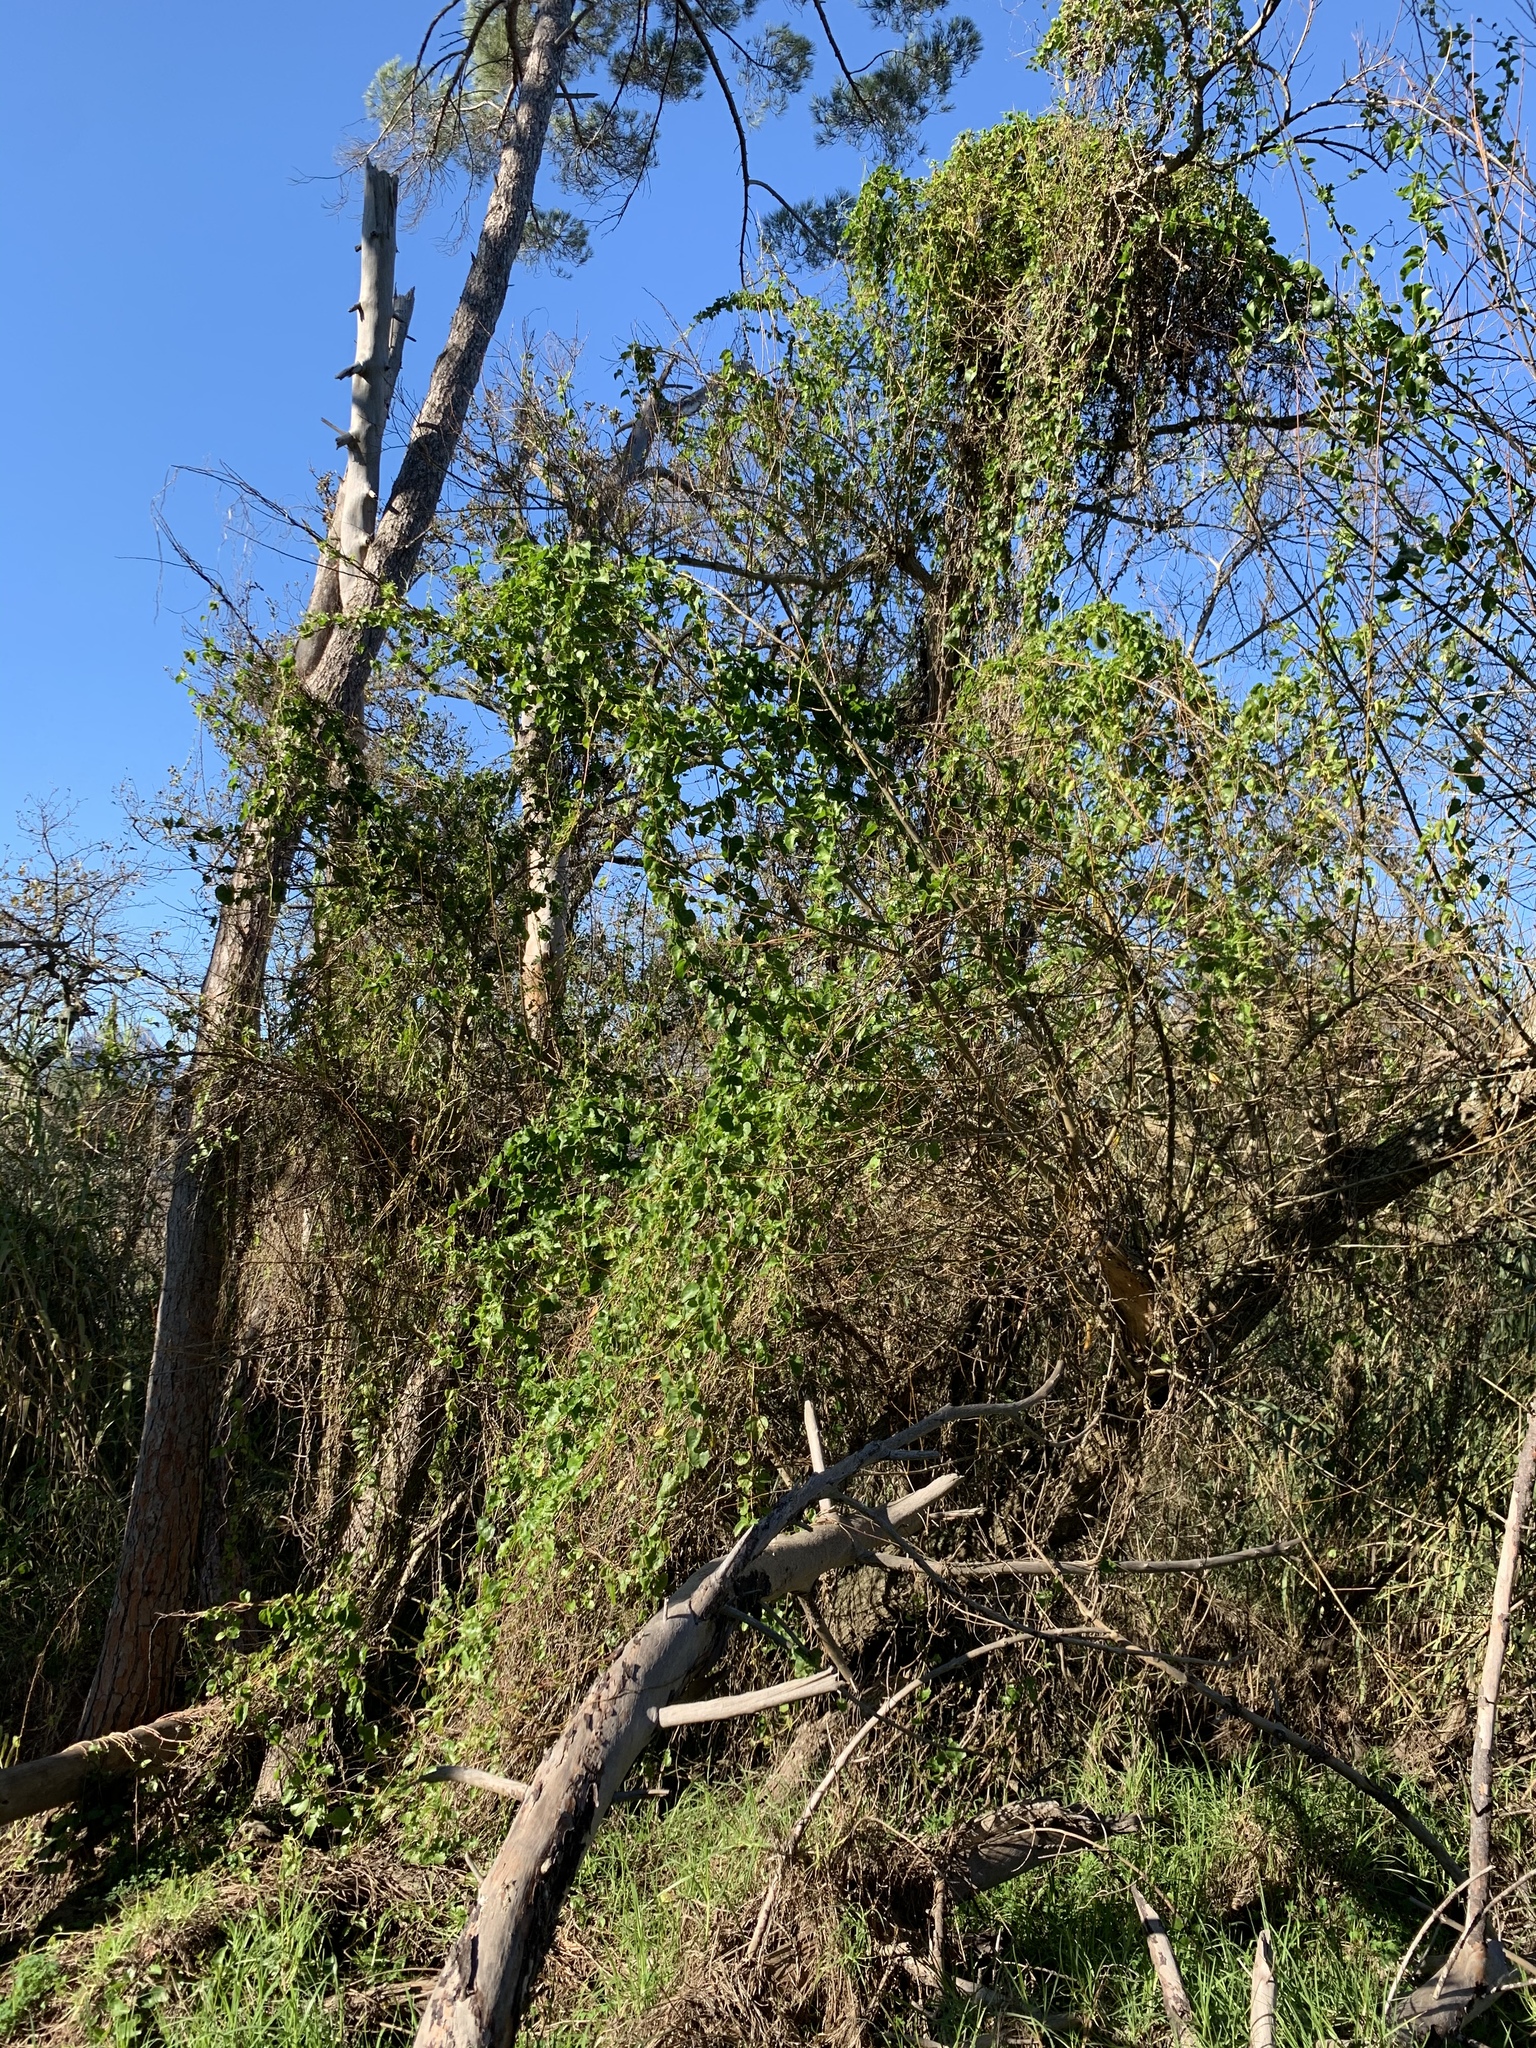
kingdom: Plantae
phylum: Tracheophyta
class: Magnoliopsida
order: Caryophyllales
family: Basellaceae
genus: Anredera
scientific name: Anredera cordifolia
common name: Heartleaf madeiravine
